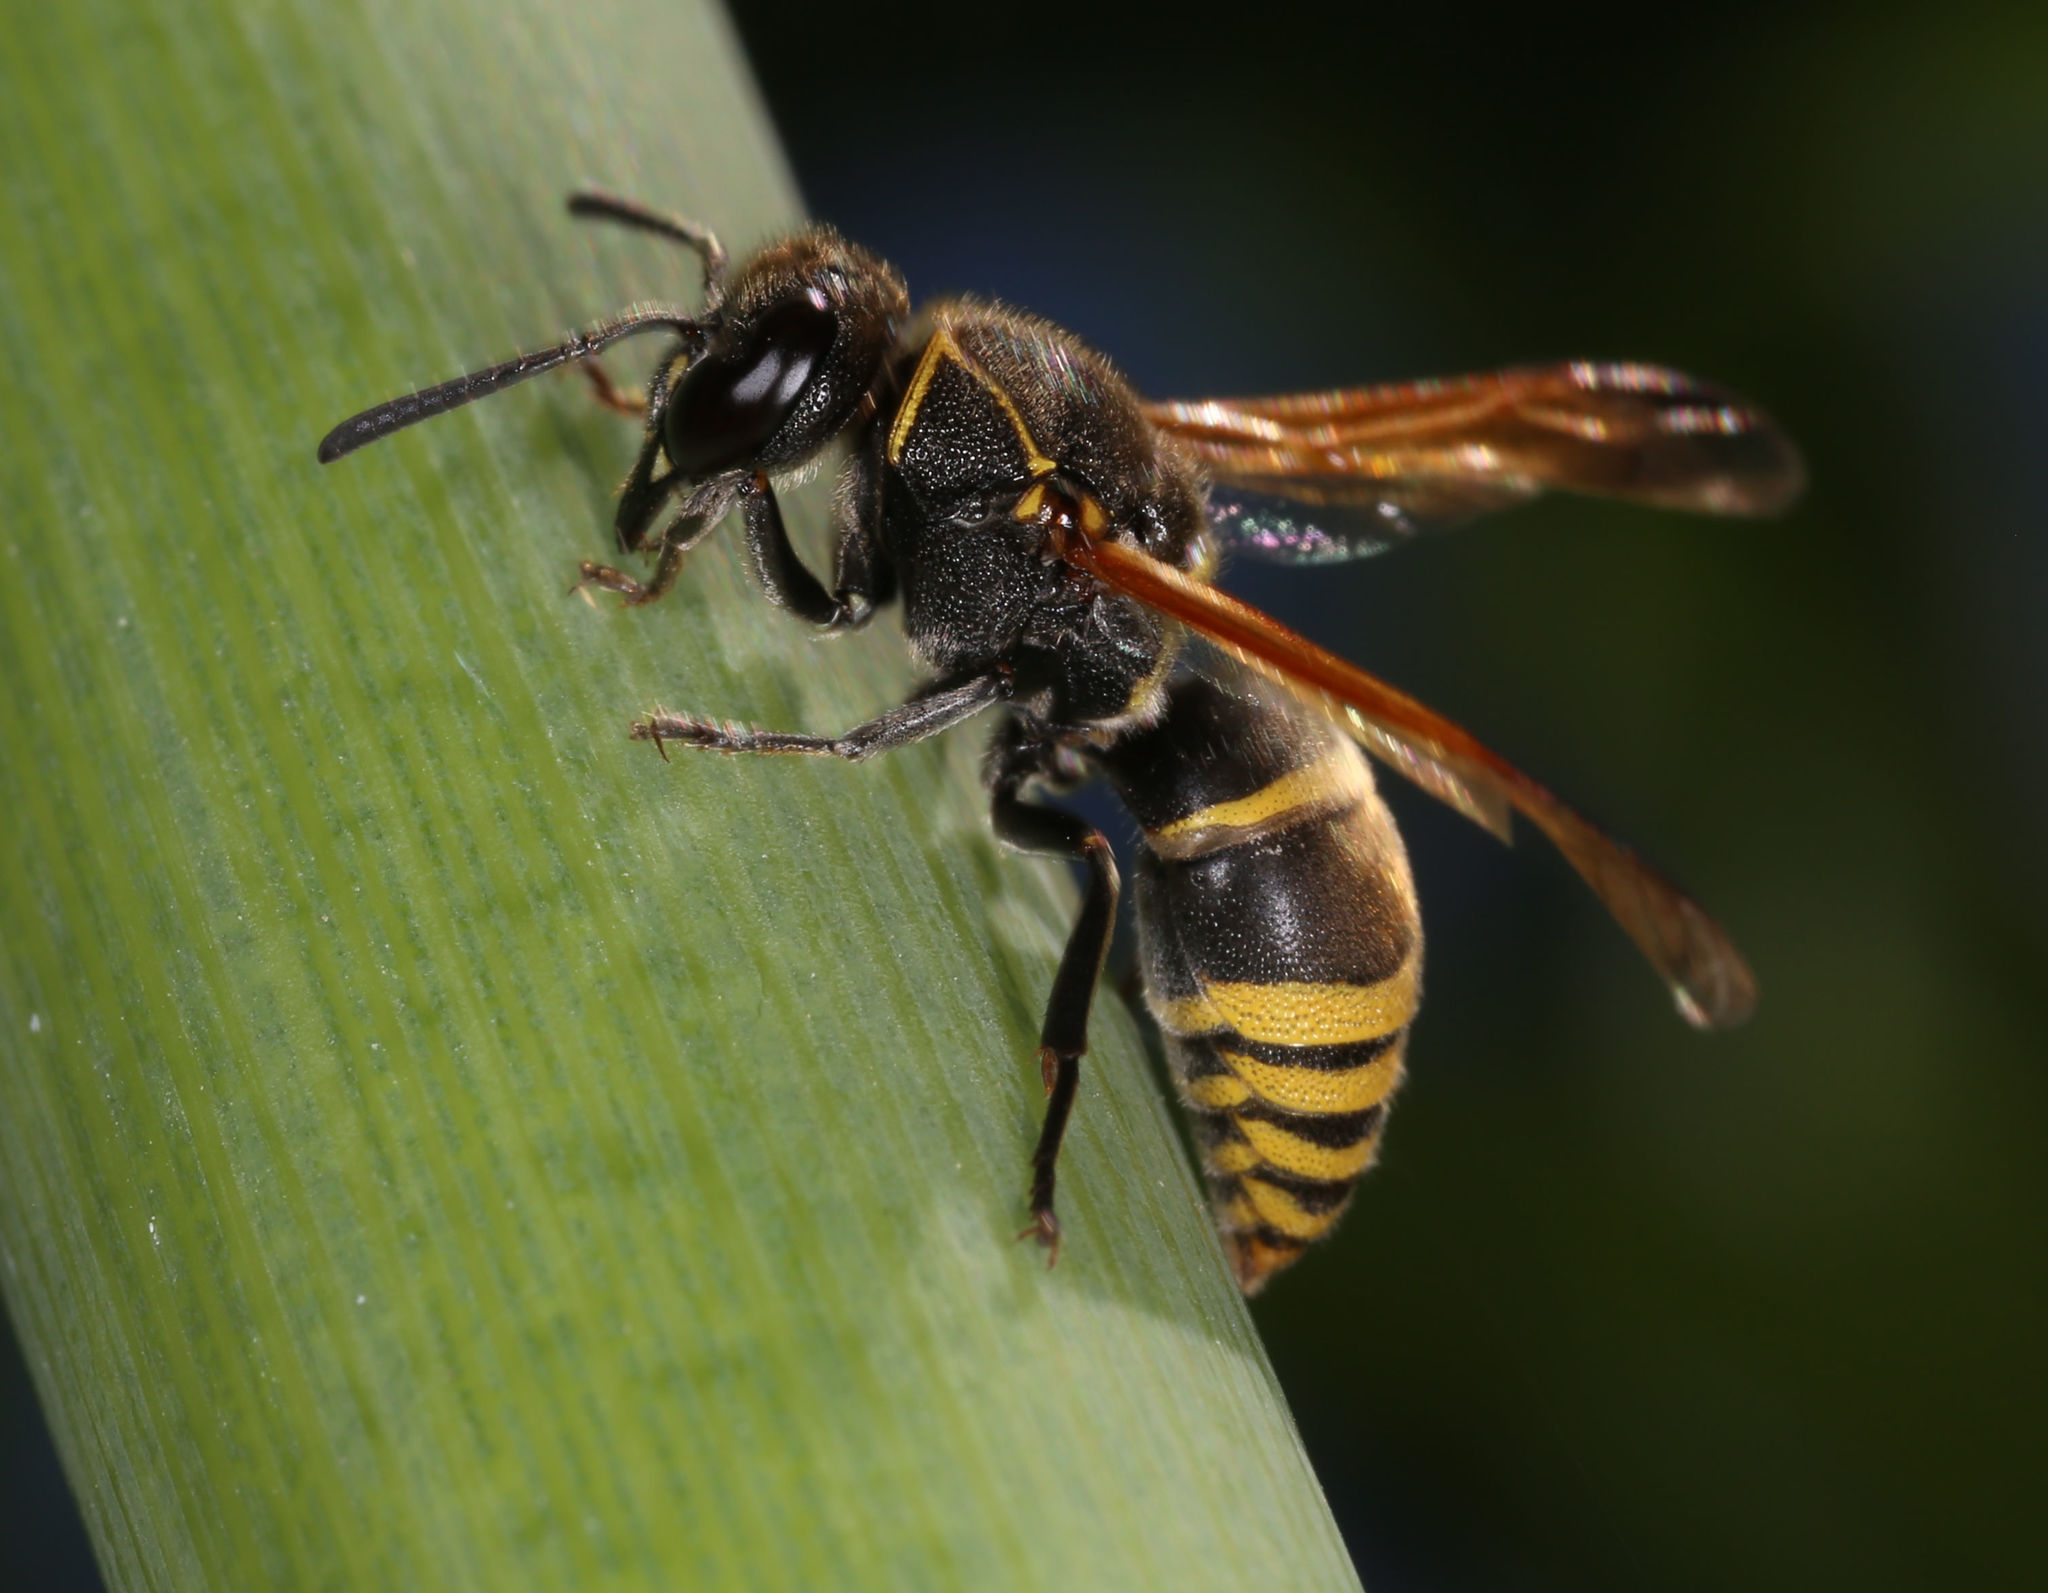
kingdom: Animalia
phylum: Arthropoda
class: Insecta
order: Hymenoptera
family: Eumenidae
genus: Pachodynerus
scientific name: Pachodynerus guadulpensis
